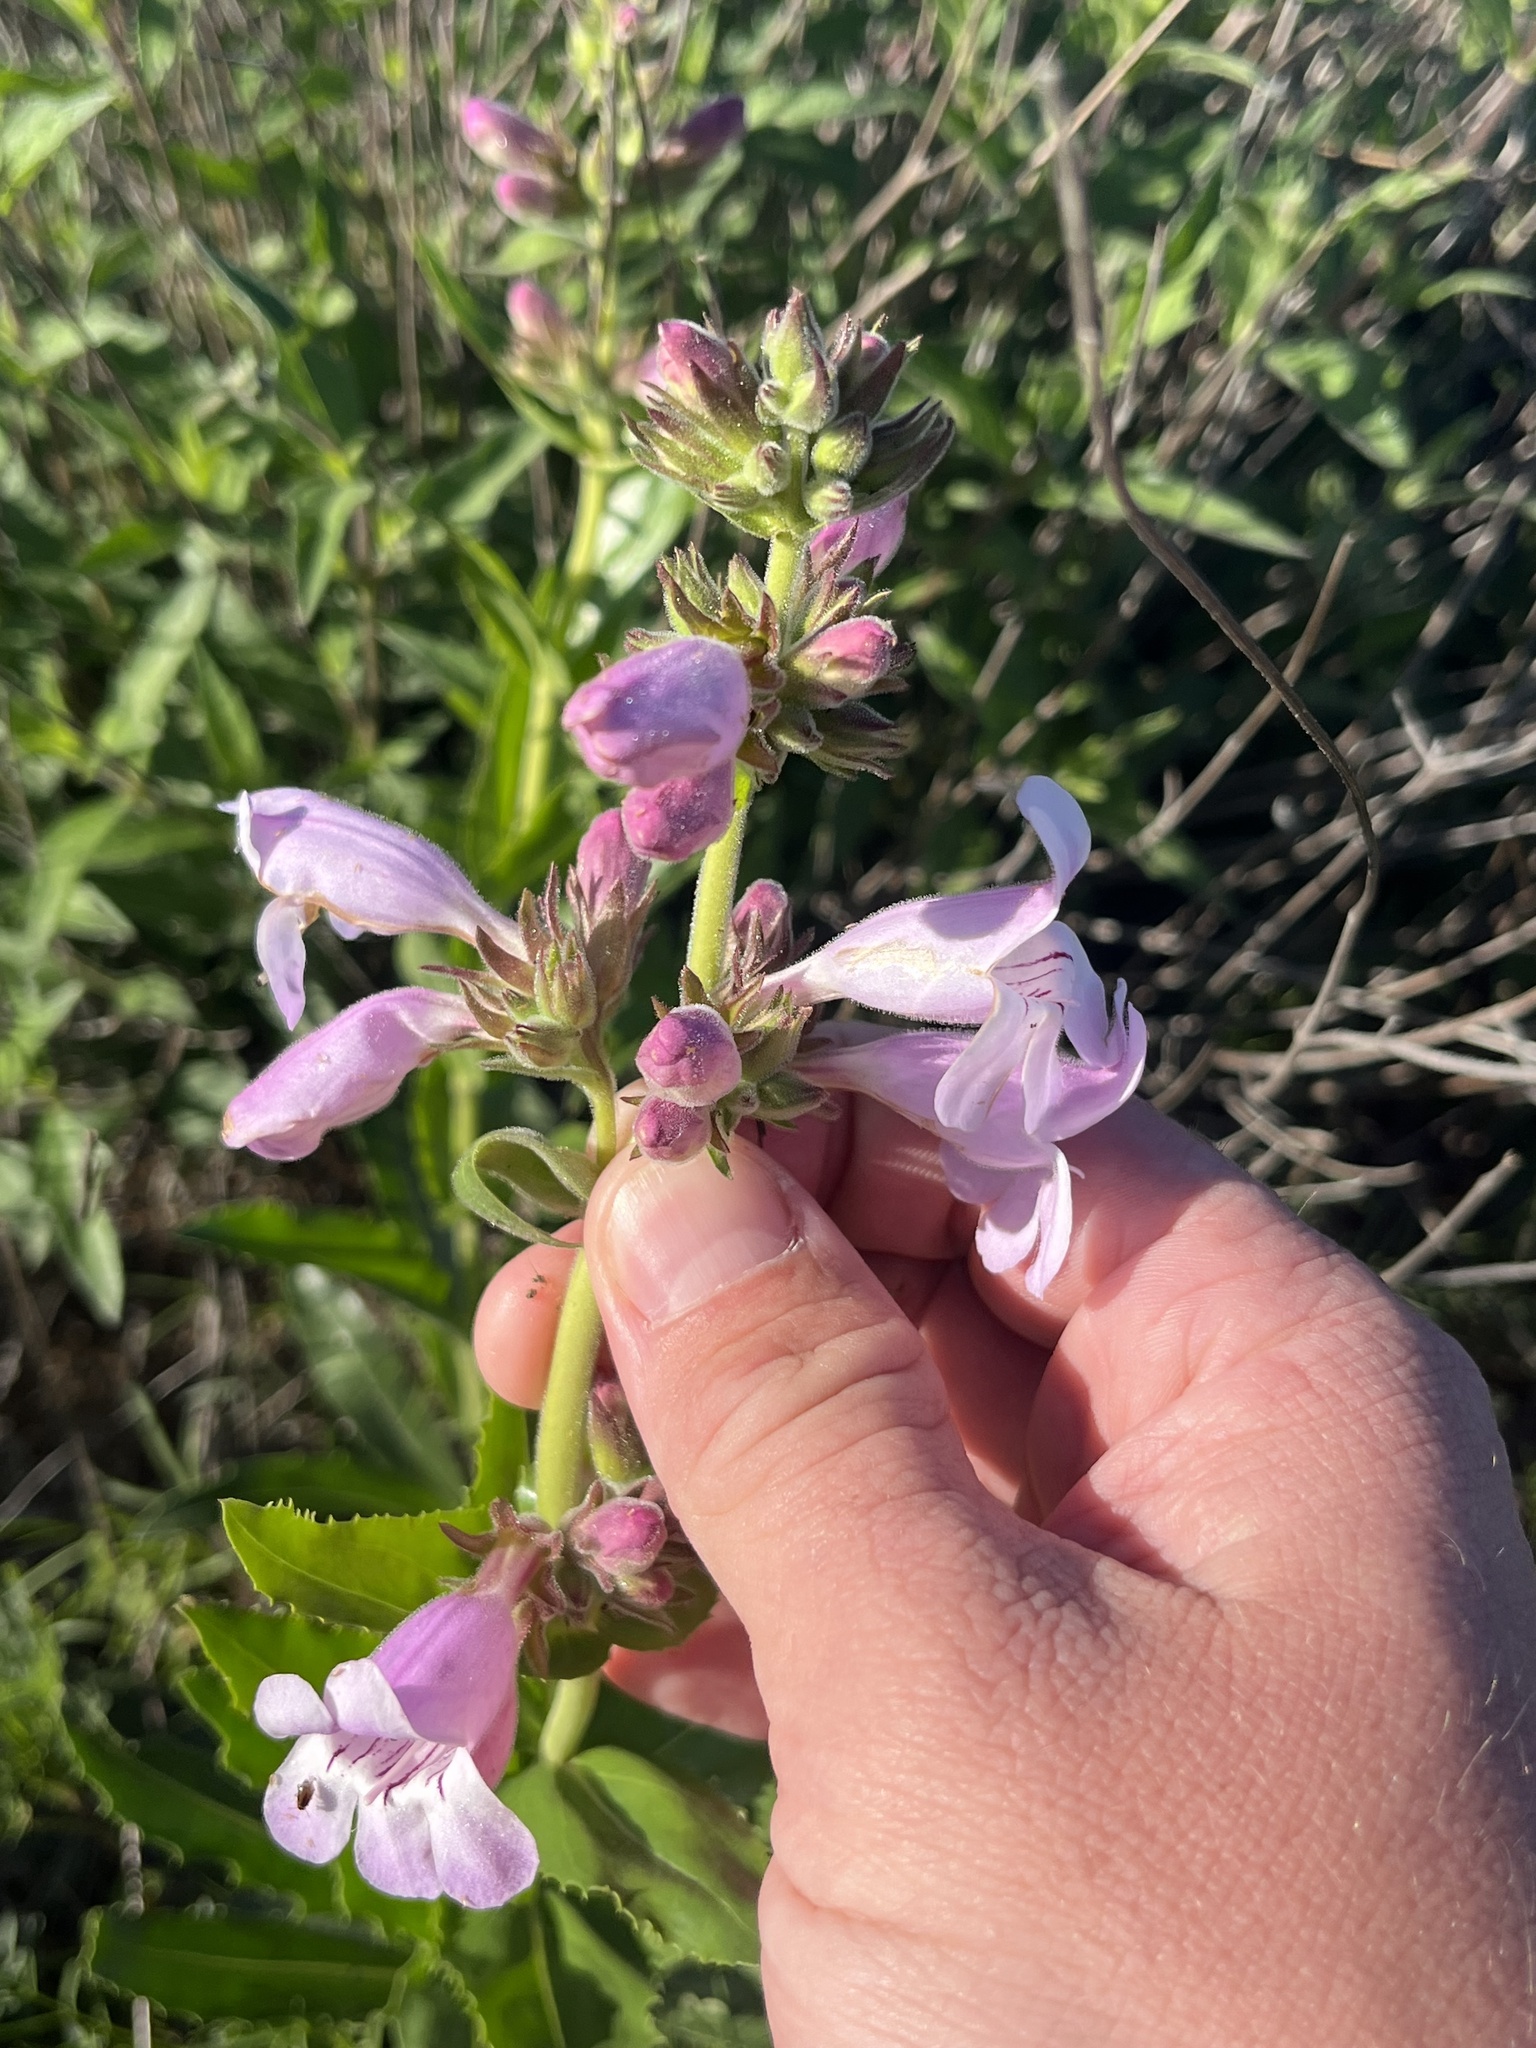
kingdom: Plantae
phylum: Tracheophyta
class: Magnoliopsida
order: Lamiales
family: Plantaginaceae
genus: Penstemon
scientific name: Penstemon cobaea
